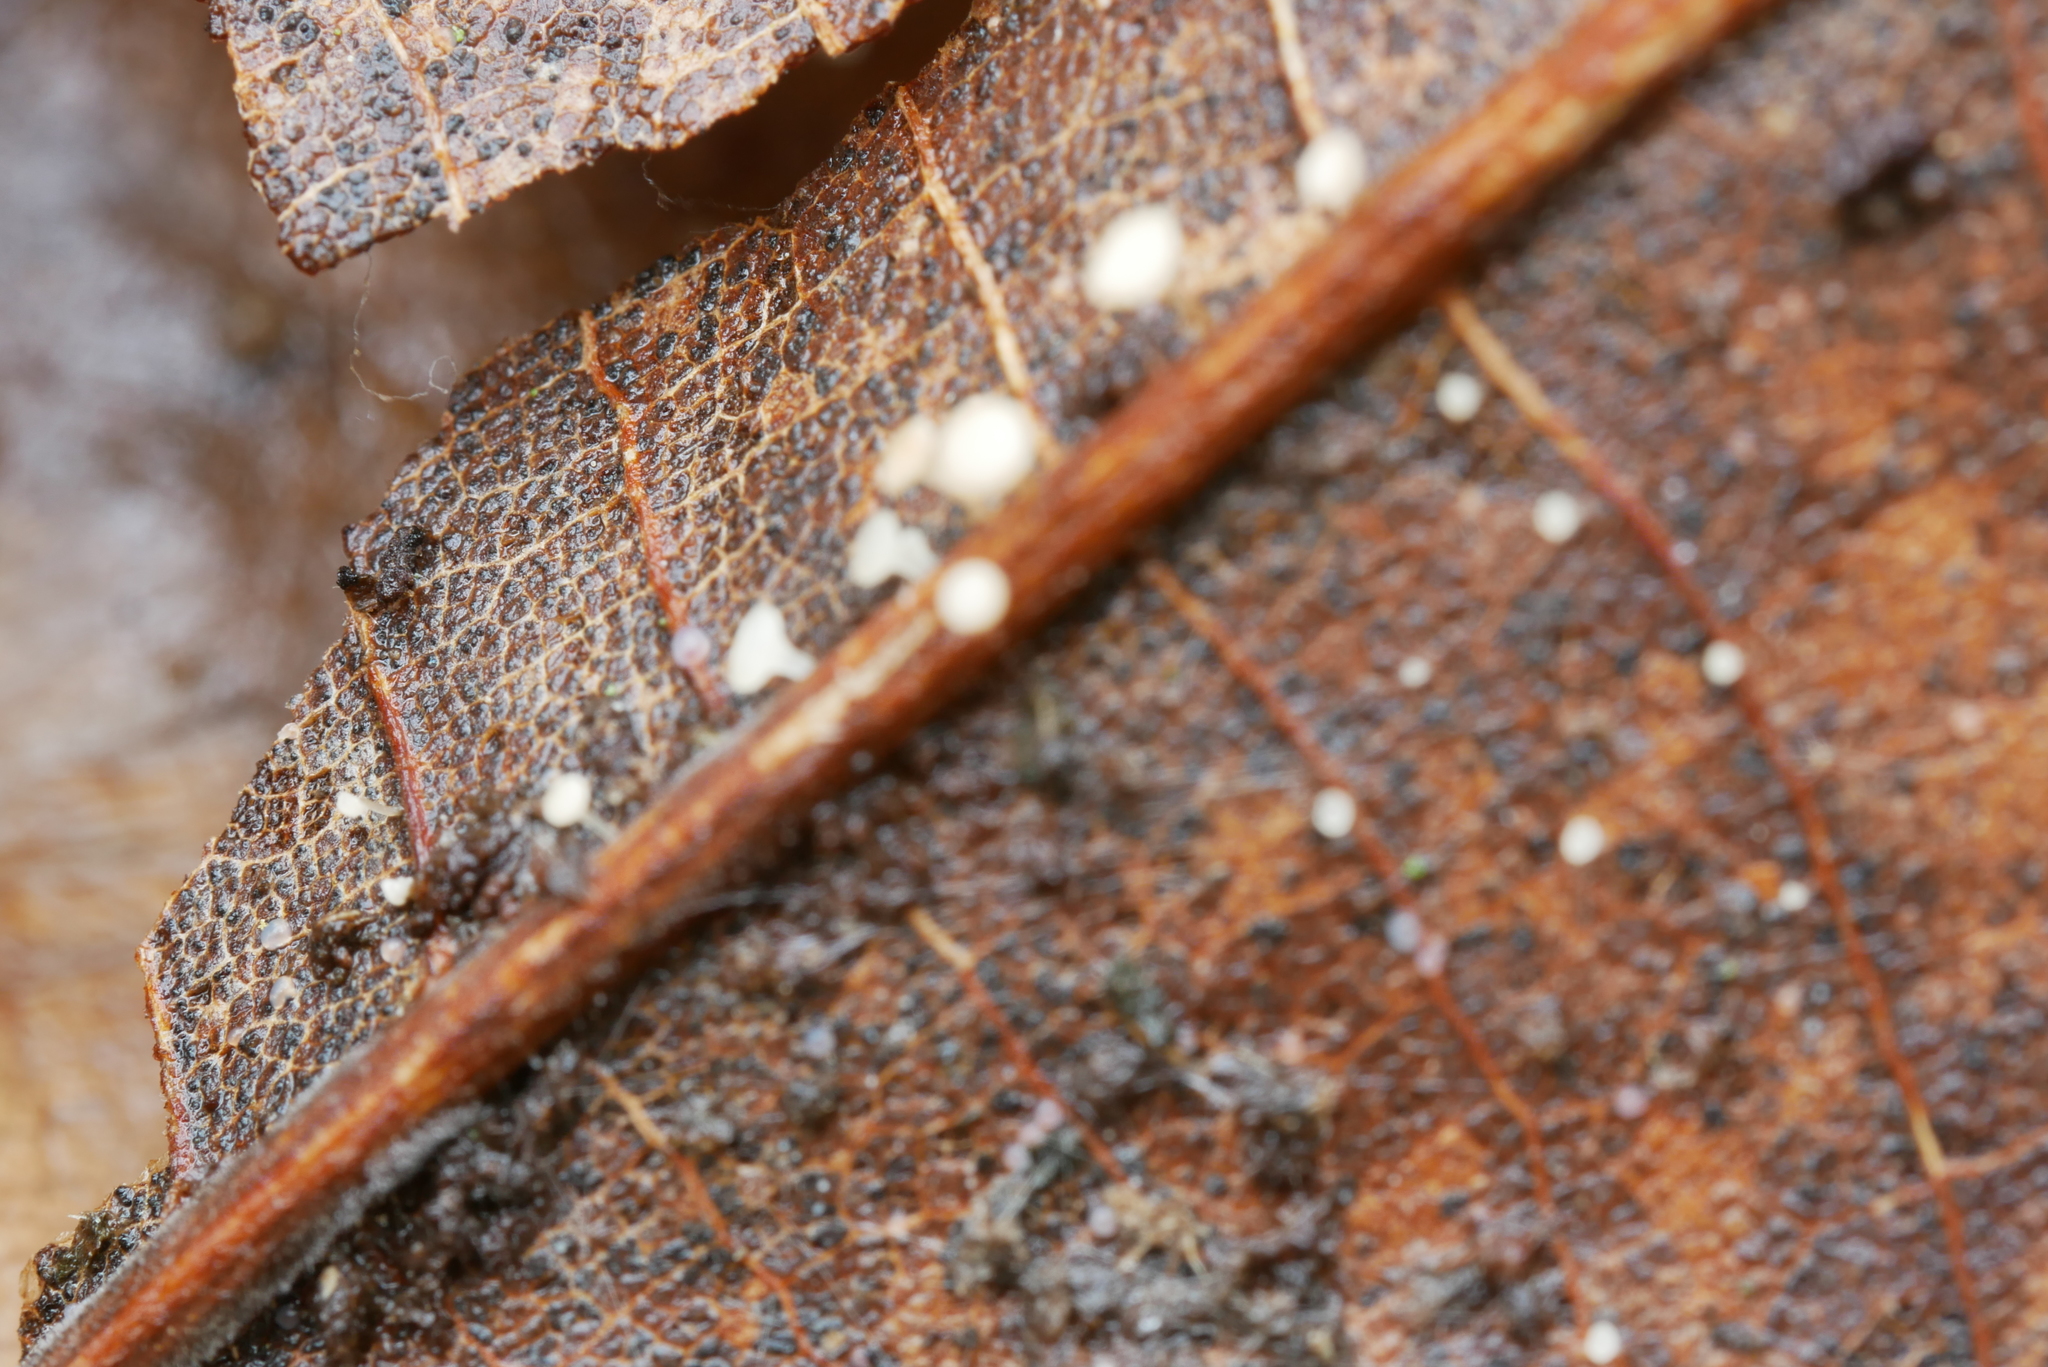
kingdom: Fungi
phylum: Ascomycota
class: Leotiomycetes
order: Helotiales
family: Helotiaceae
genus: Hymenoscyphus
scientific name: Hymenoscyphus caudatus
